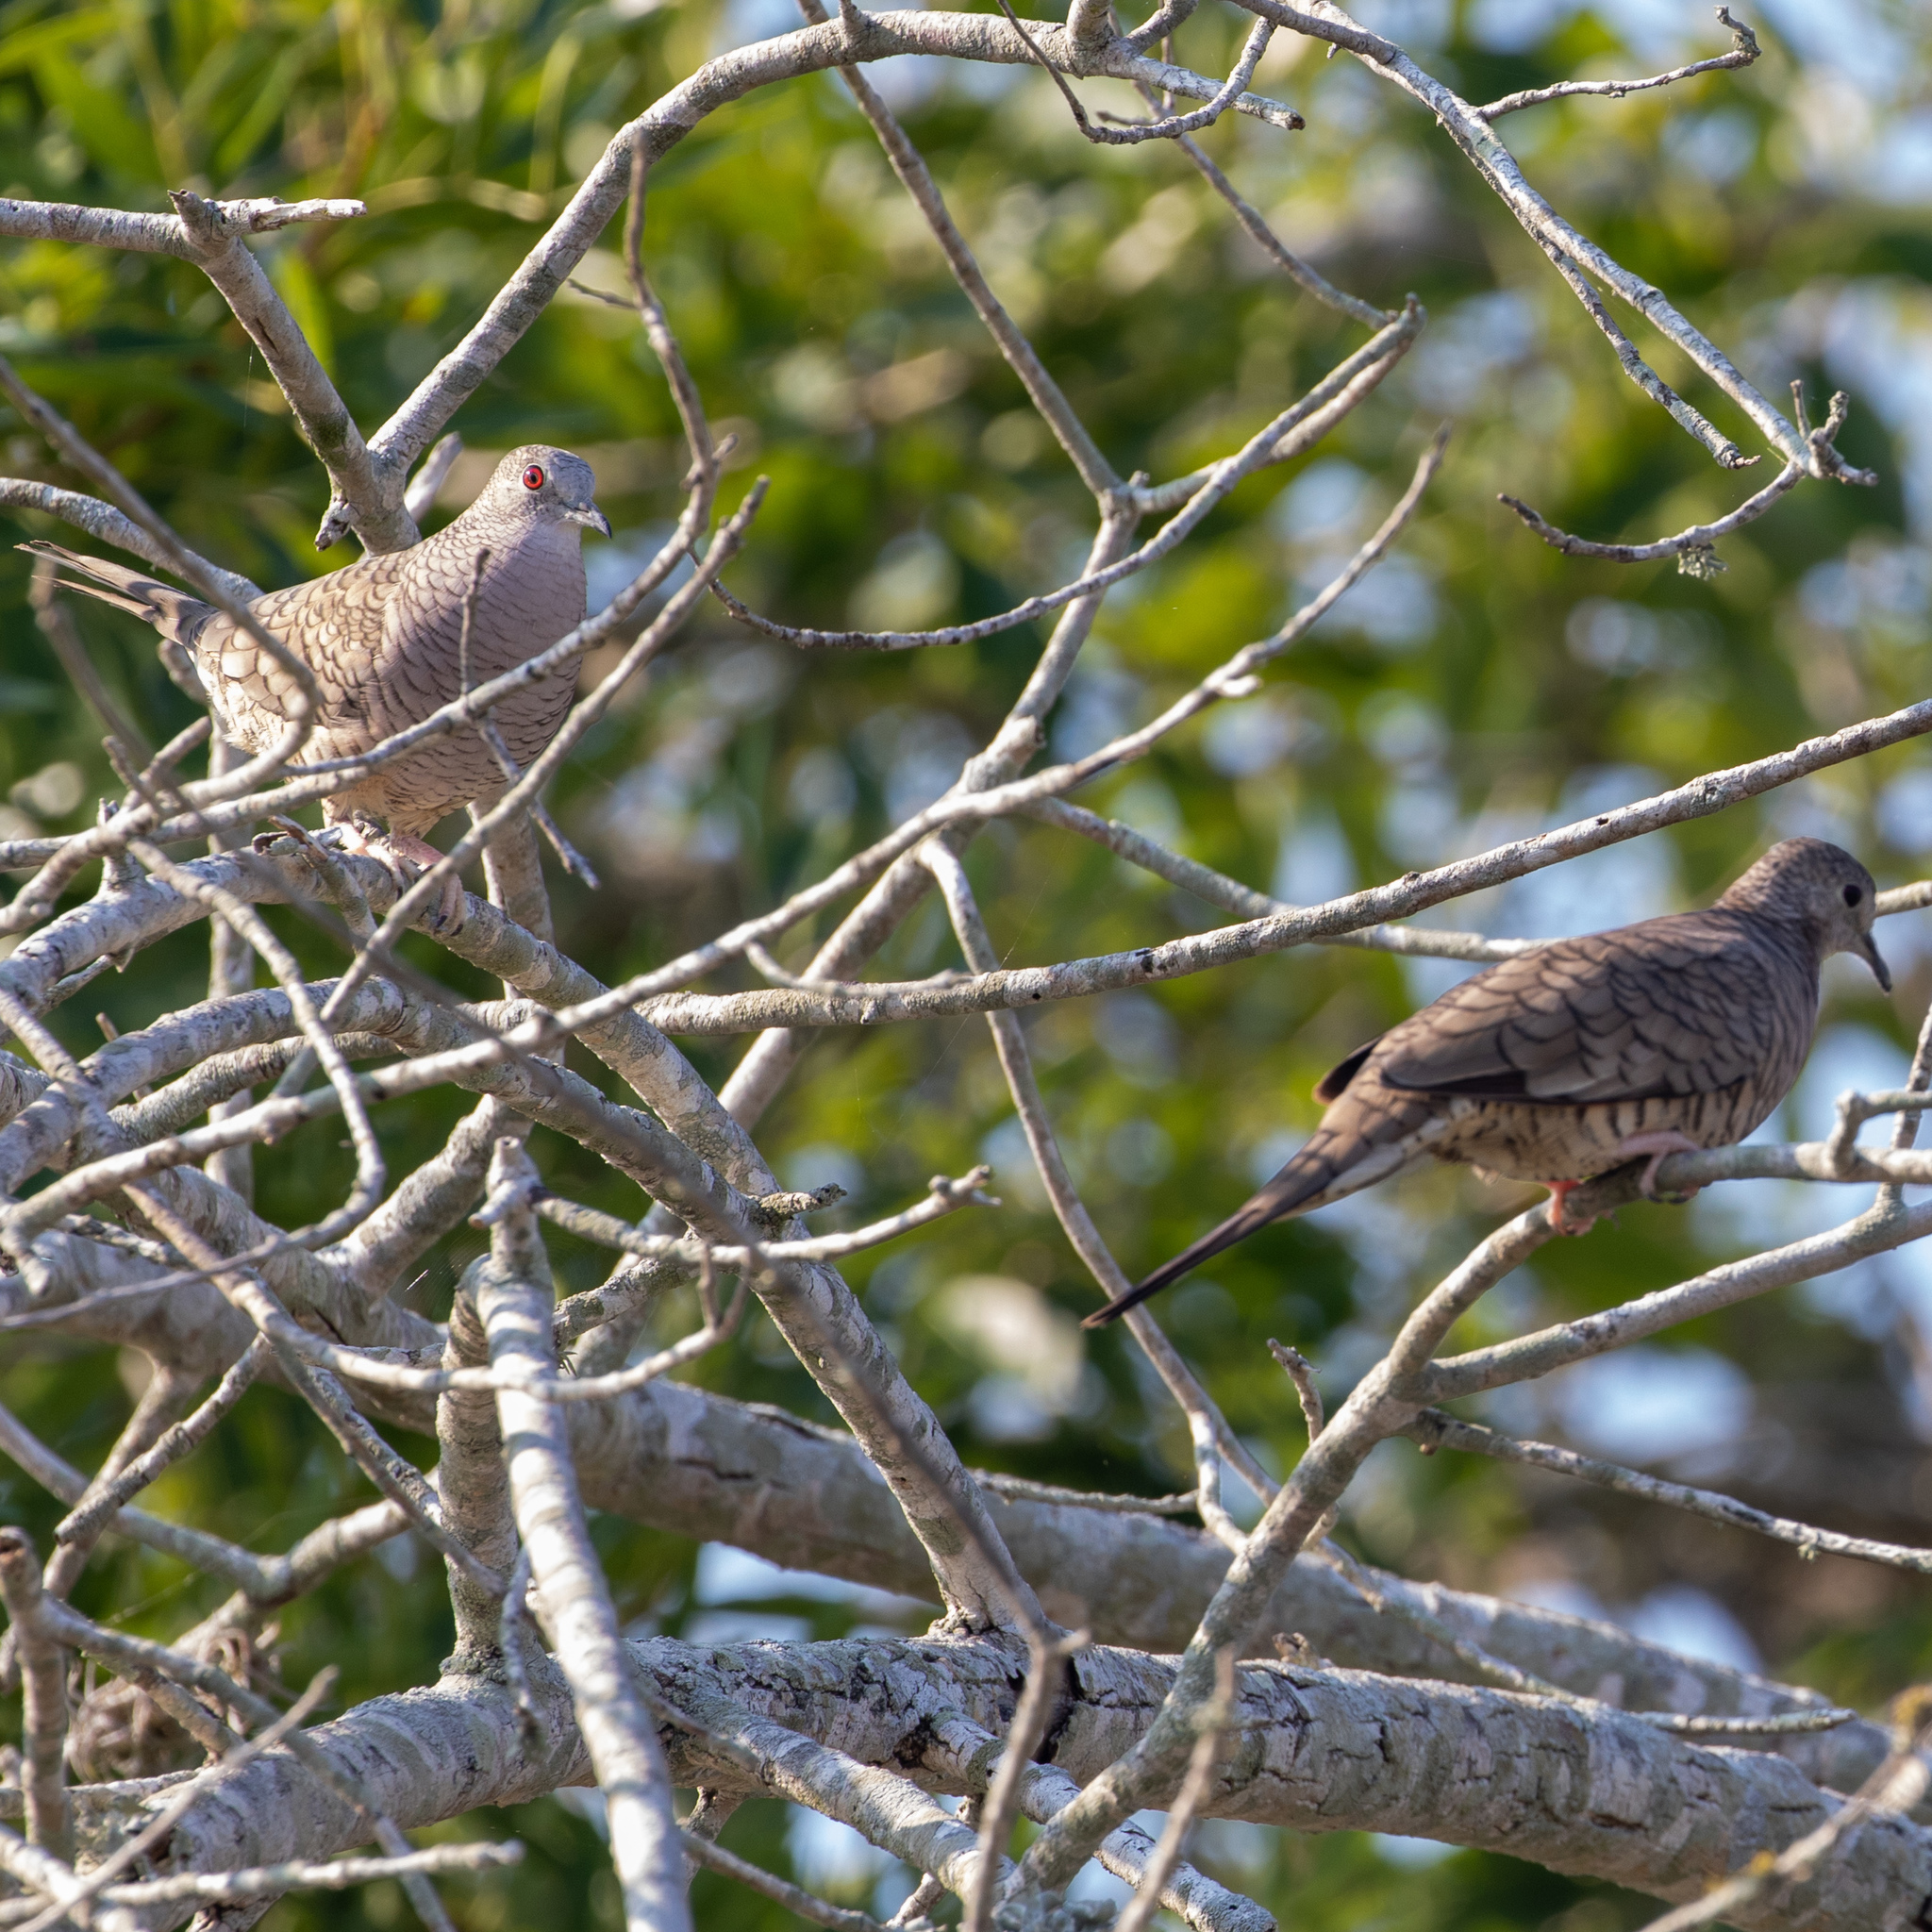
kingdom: Animalia
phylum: Chordata
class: Aves
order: Columbiformes
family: Columbidae
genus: Columbina
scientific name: Columbina inca
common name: Inca dove
